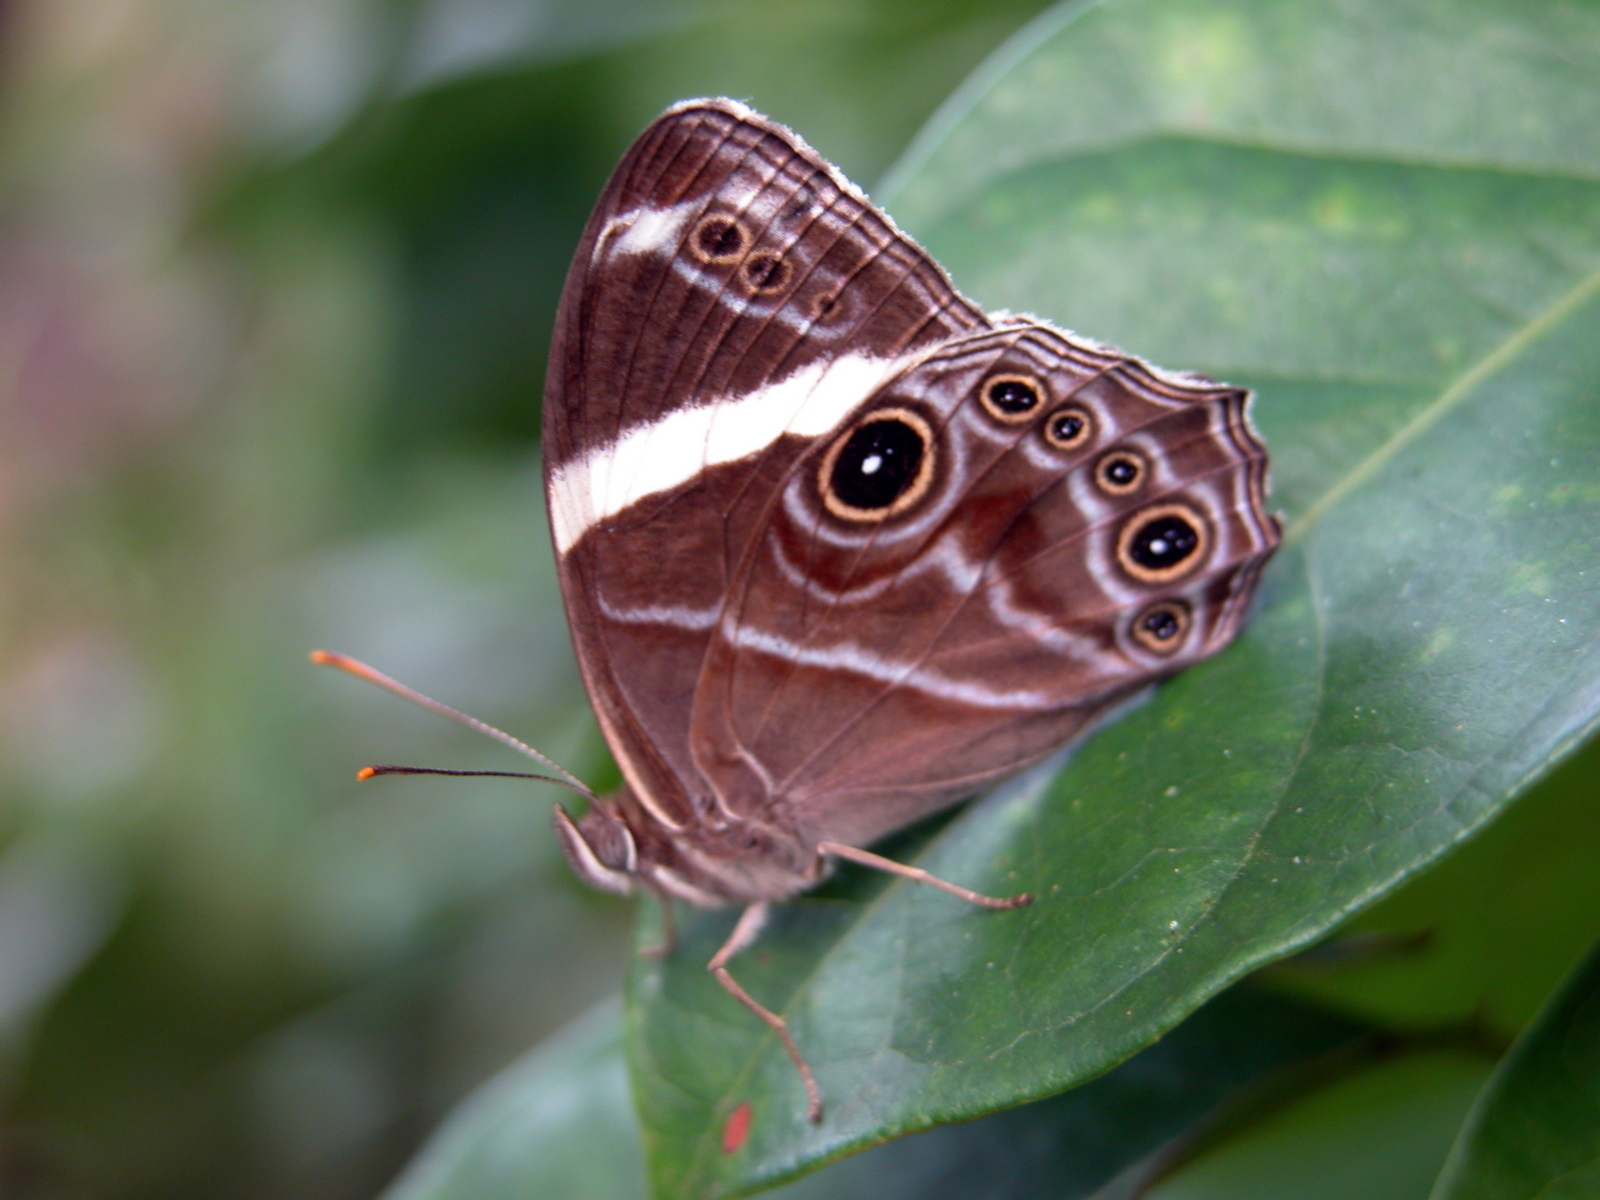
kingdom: Animalia
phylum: Arthropoda
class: Insecta
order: Lepidoptera
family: Nymphalidae
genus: Lethe
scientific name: Lethe confusa
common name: Banded treebrown
